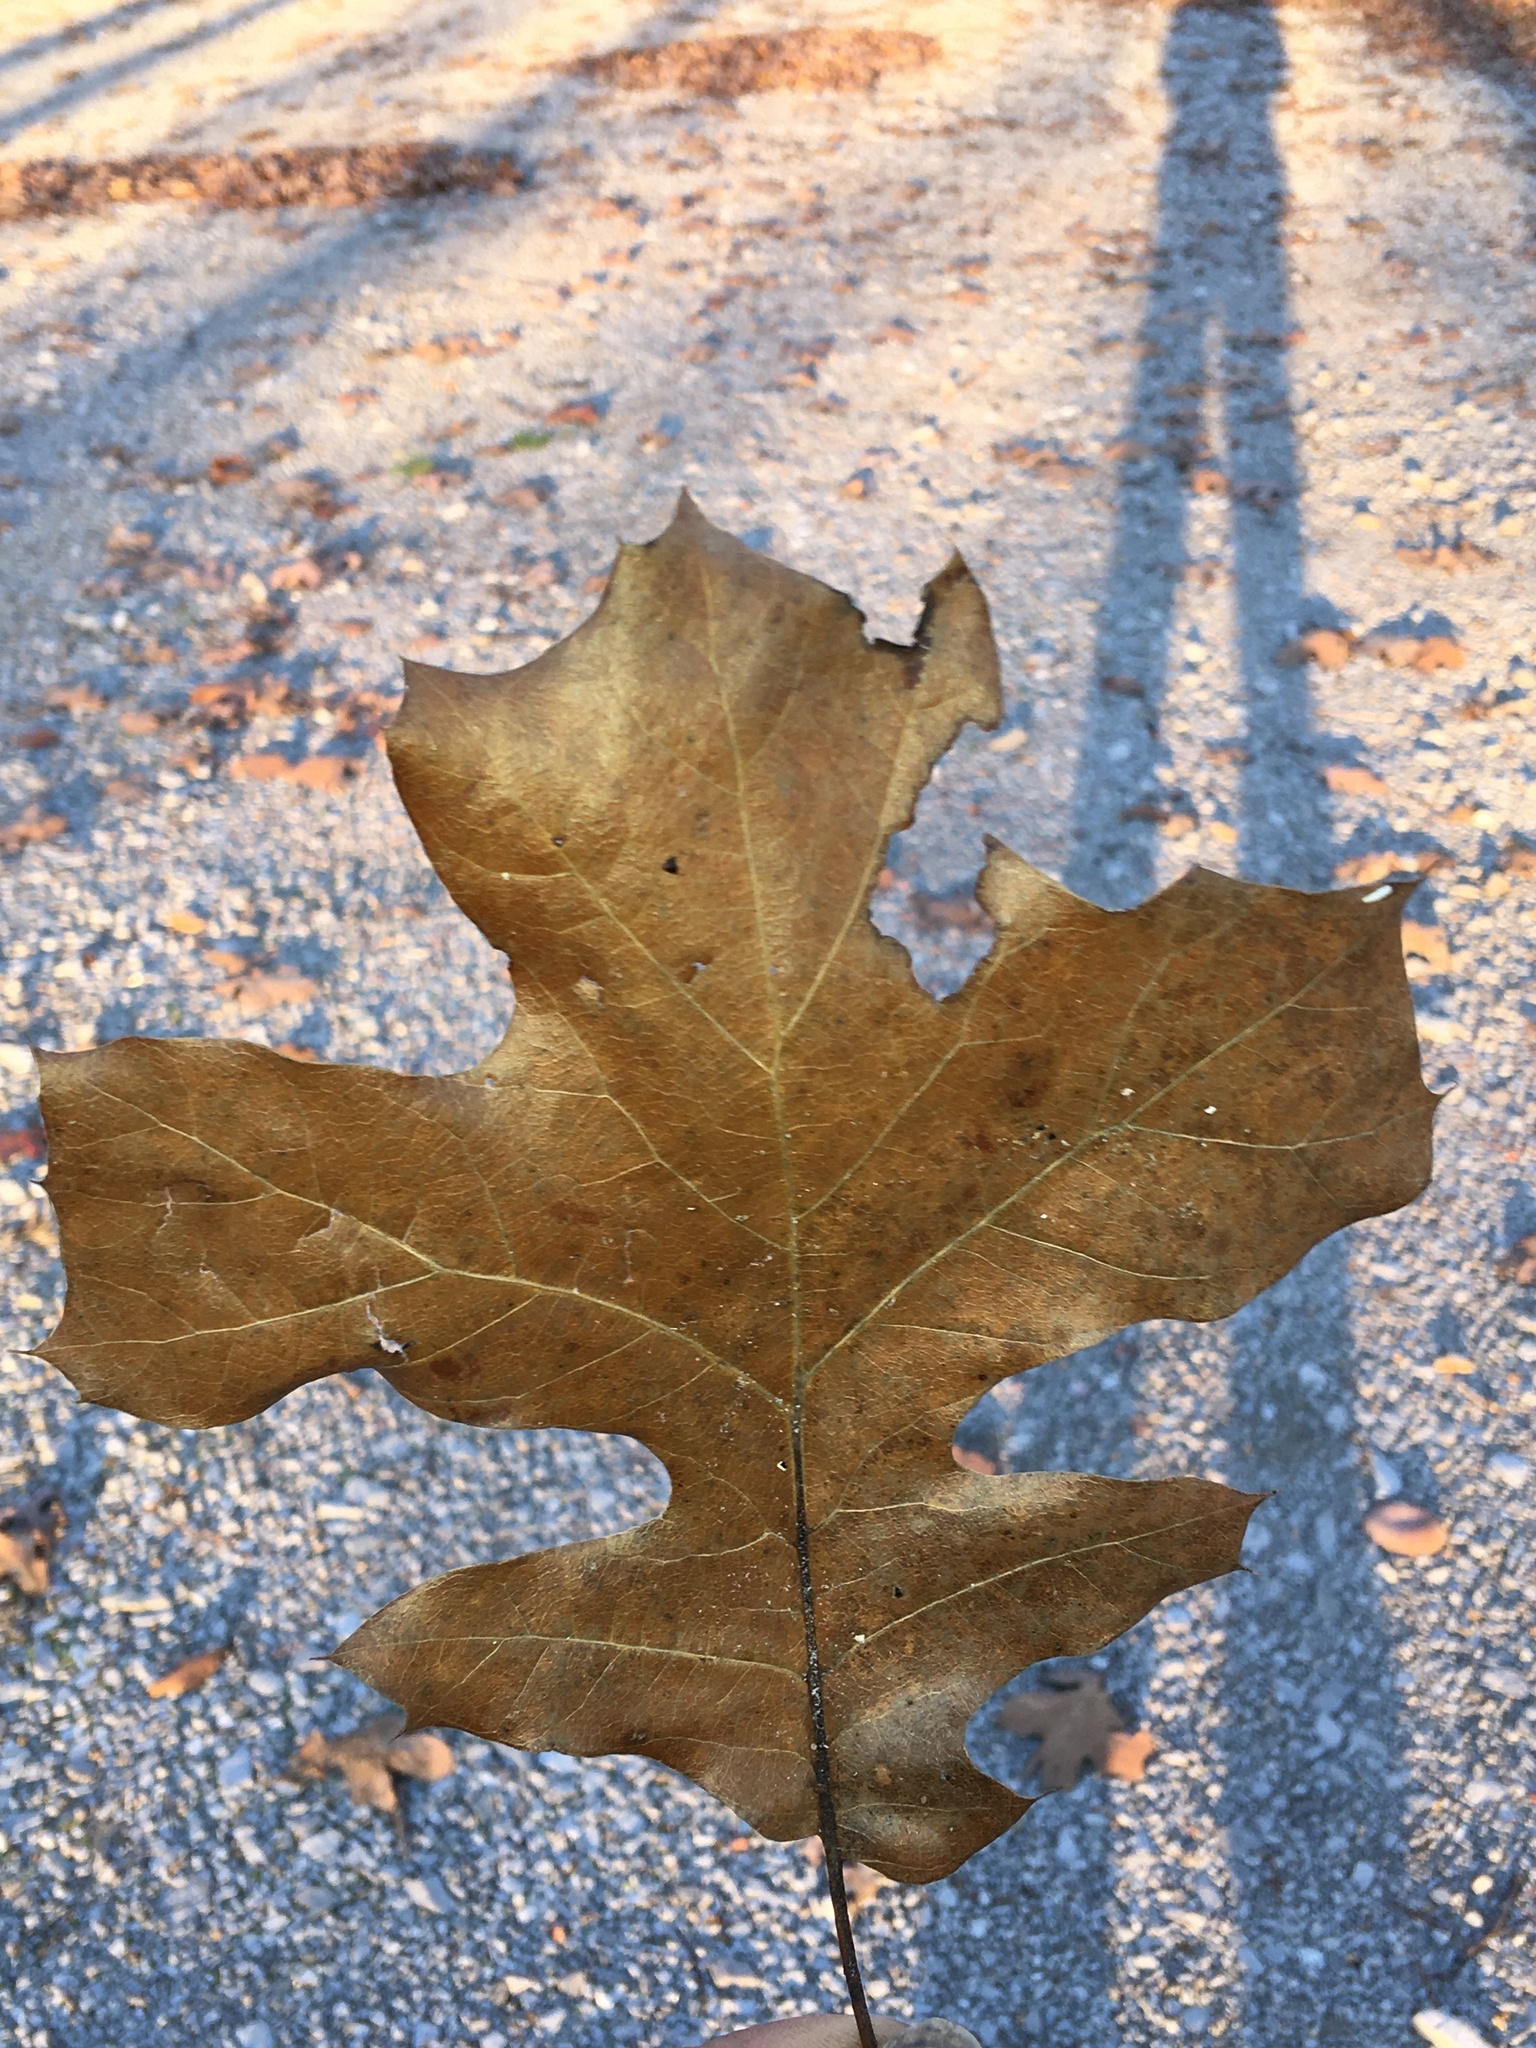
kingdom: Plantae
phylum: Tracheophyta
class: Magnoliopsida
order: Fagales
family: Fagaceae
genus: Quercus
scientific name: Quercus stellata
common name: Post oak
